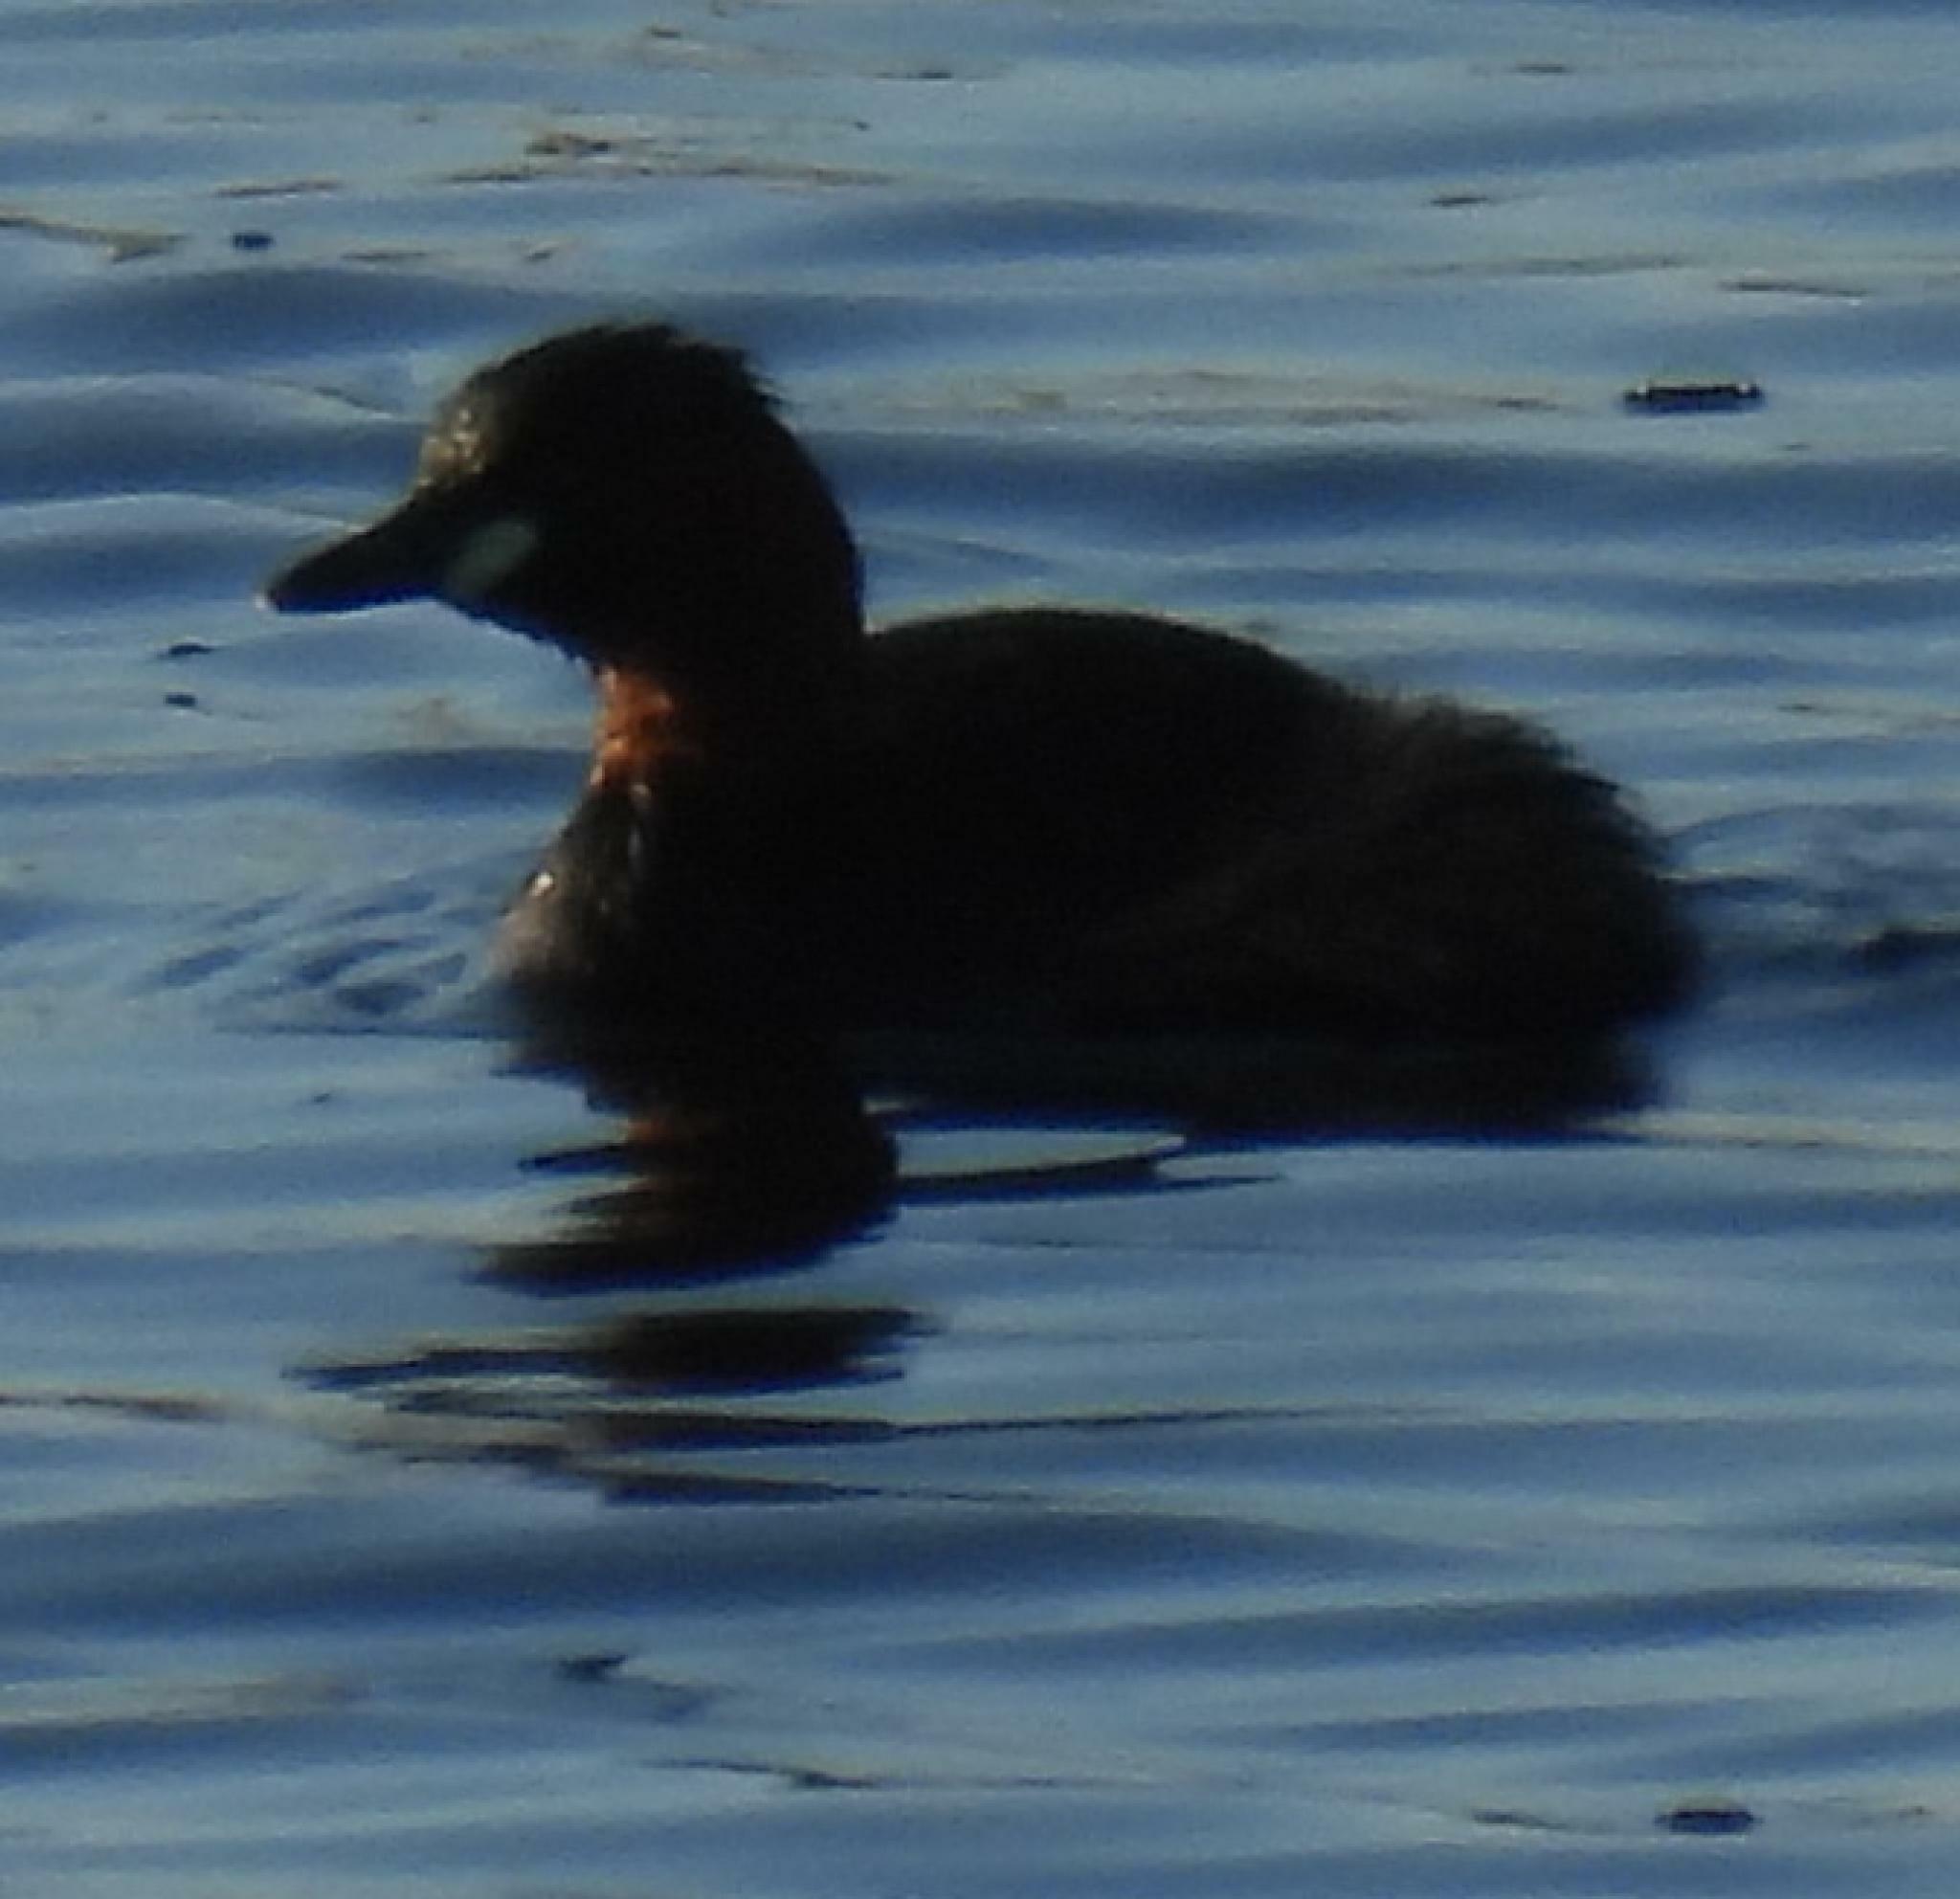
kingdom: Animalia
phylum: Chordata
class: Aves
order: Podicipediformes
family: Podicipedidae
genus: Tachybaptus
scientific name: Tachybaptus ruficollis
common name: Little grebe
